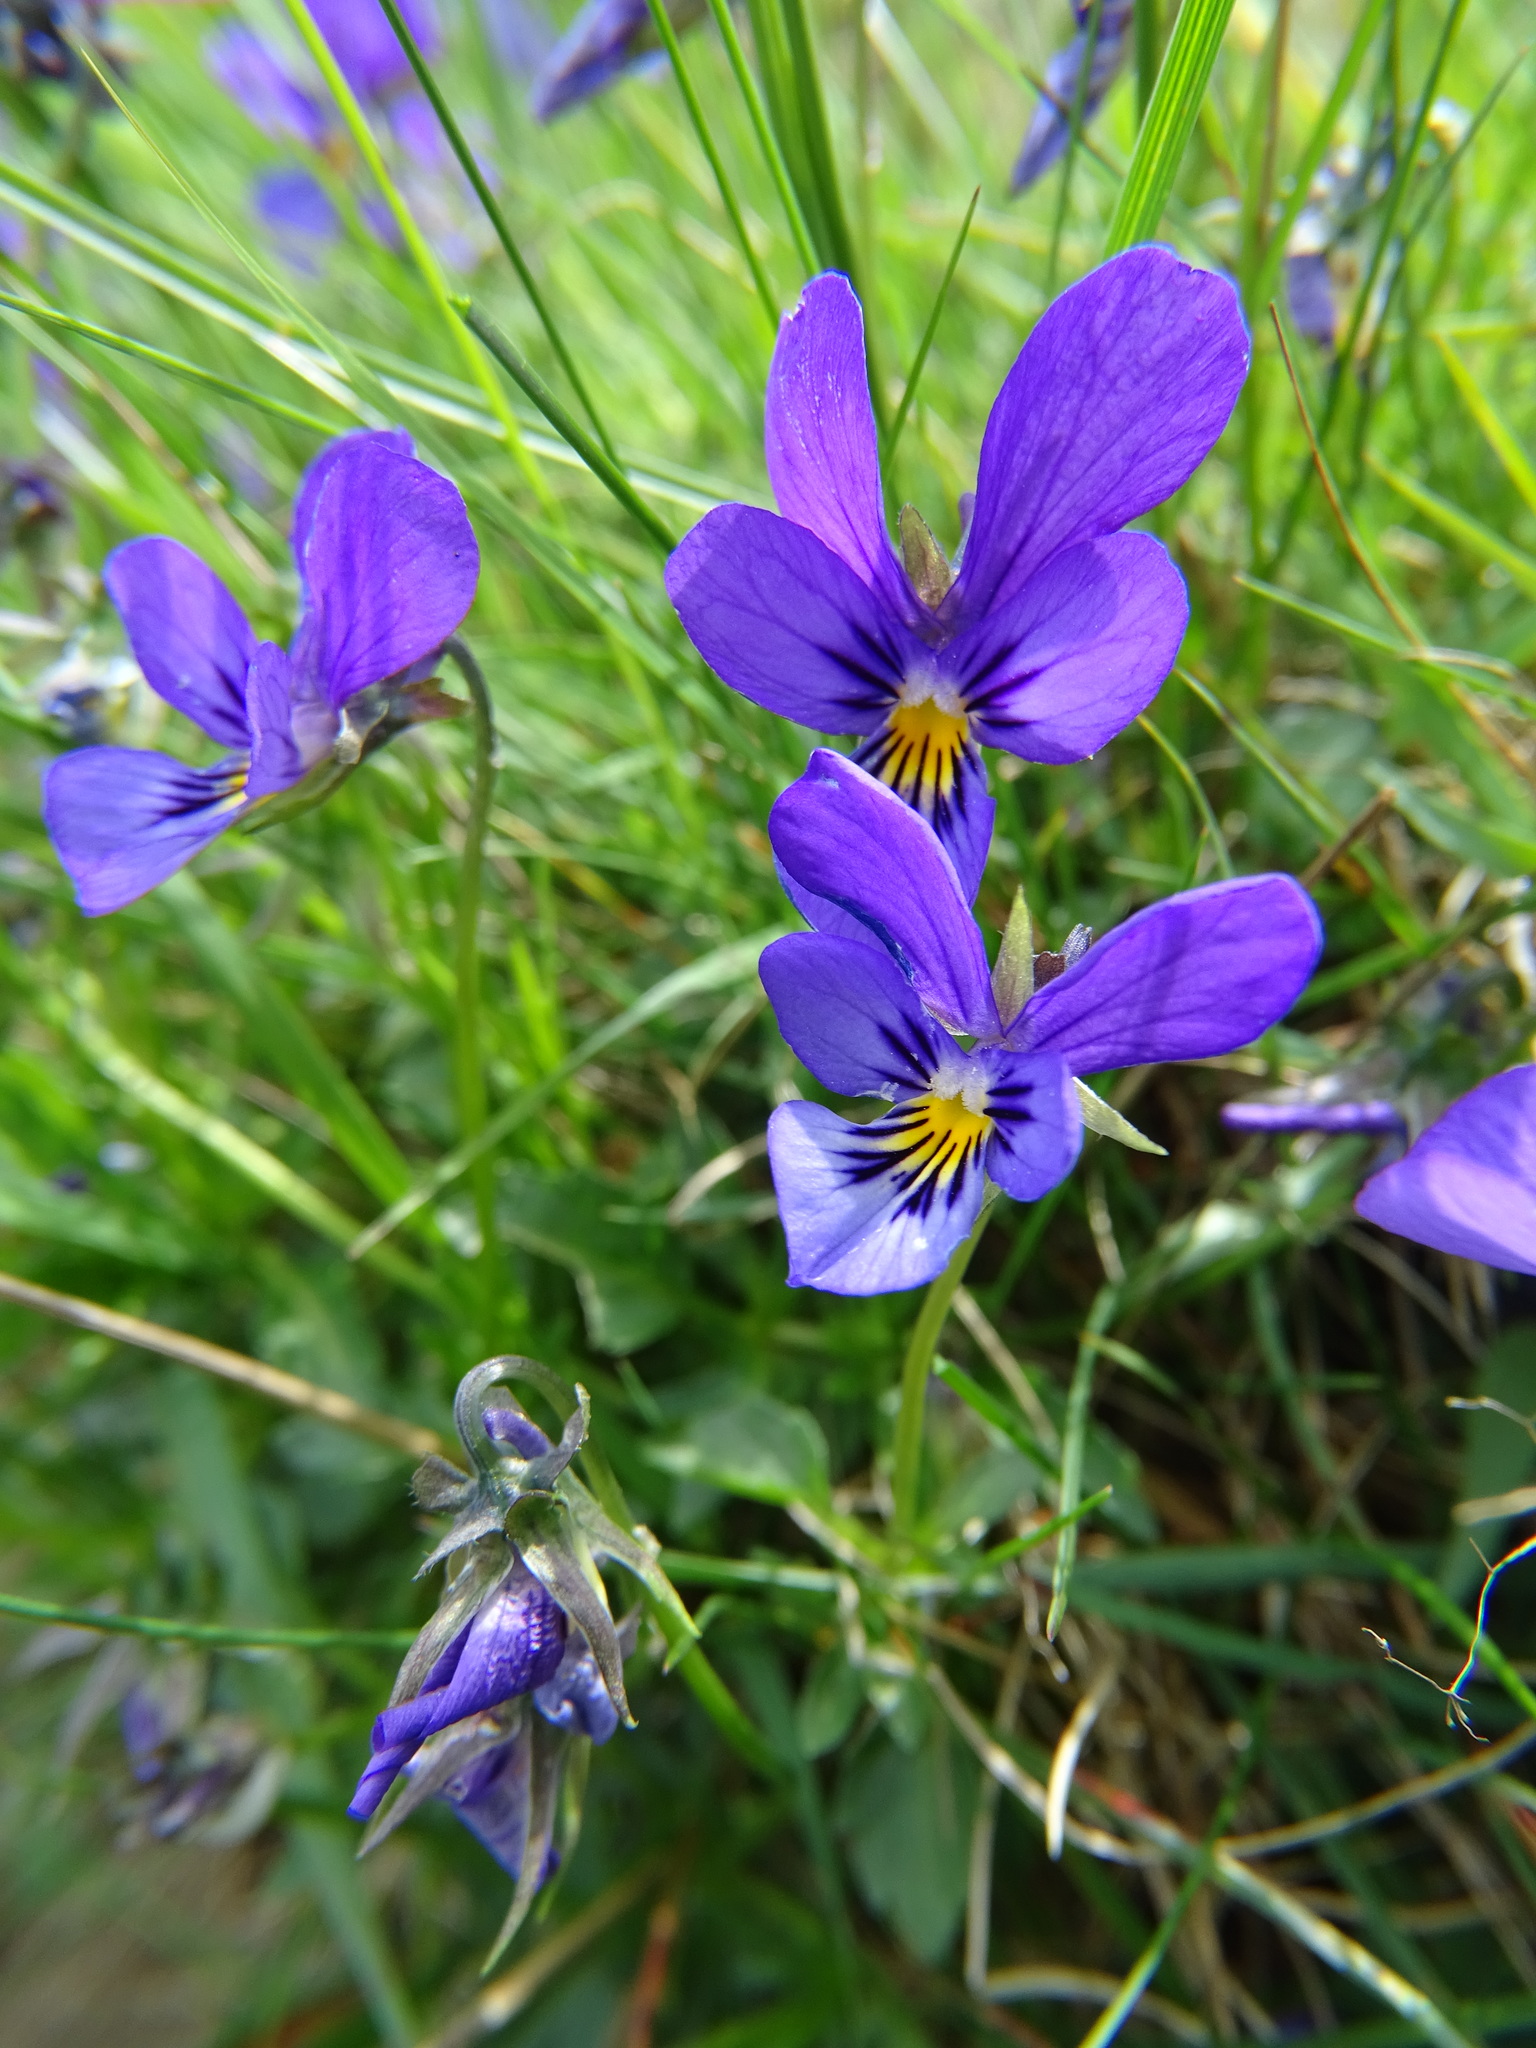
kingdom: Plantae
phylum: Tracheophyta
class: Magnoliopsida
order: Malpighiales
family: Violaceae
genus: Viola
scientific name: Viola lutea
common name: Mountain pansy
